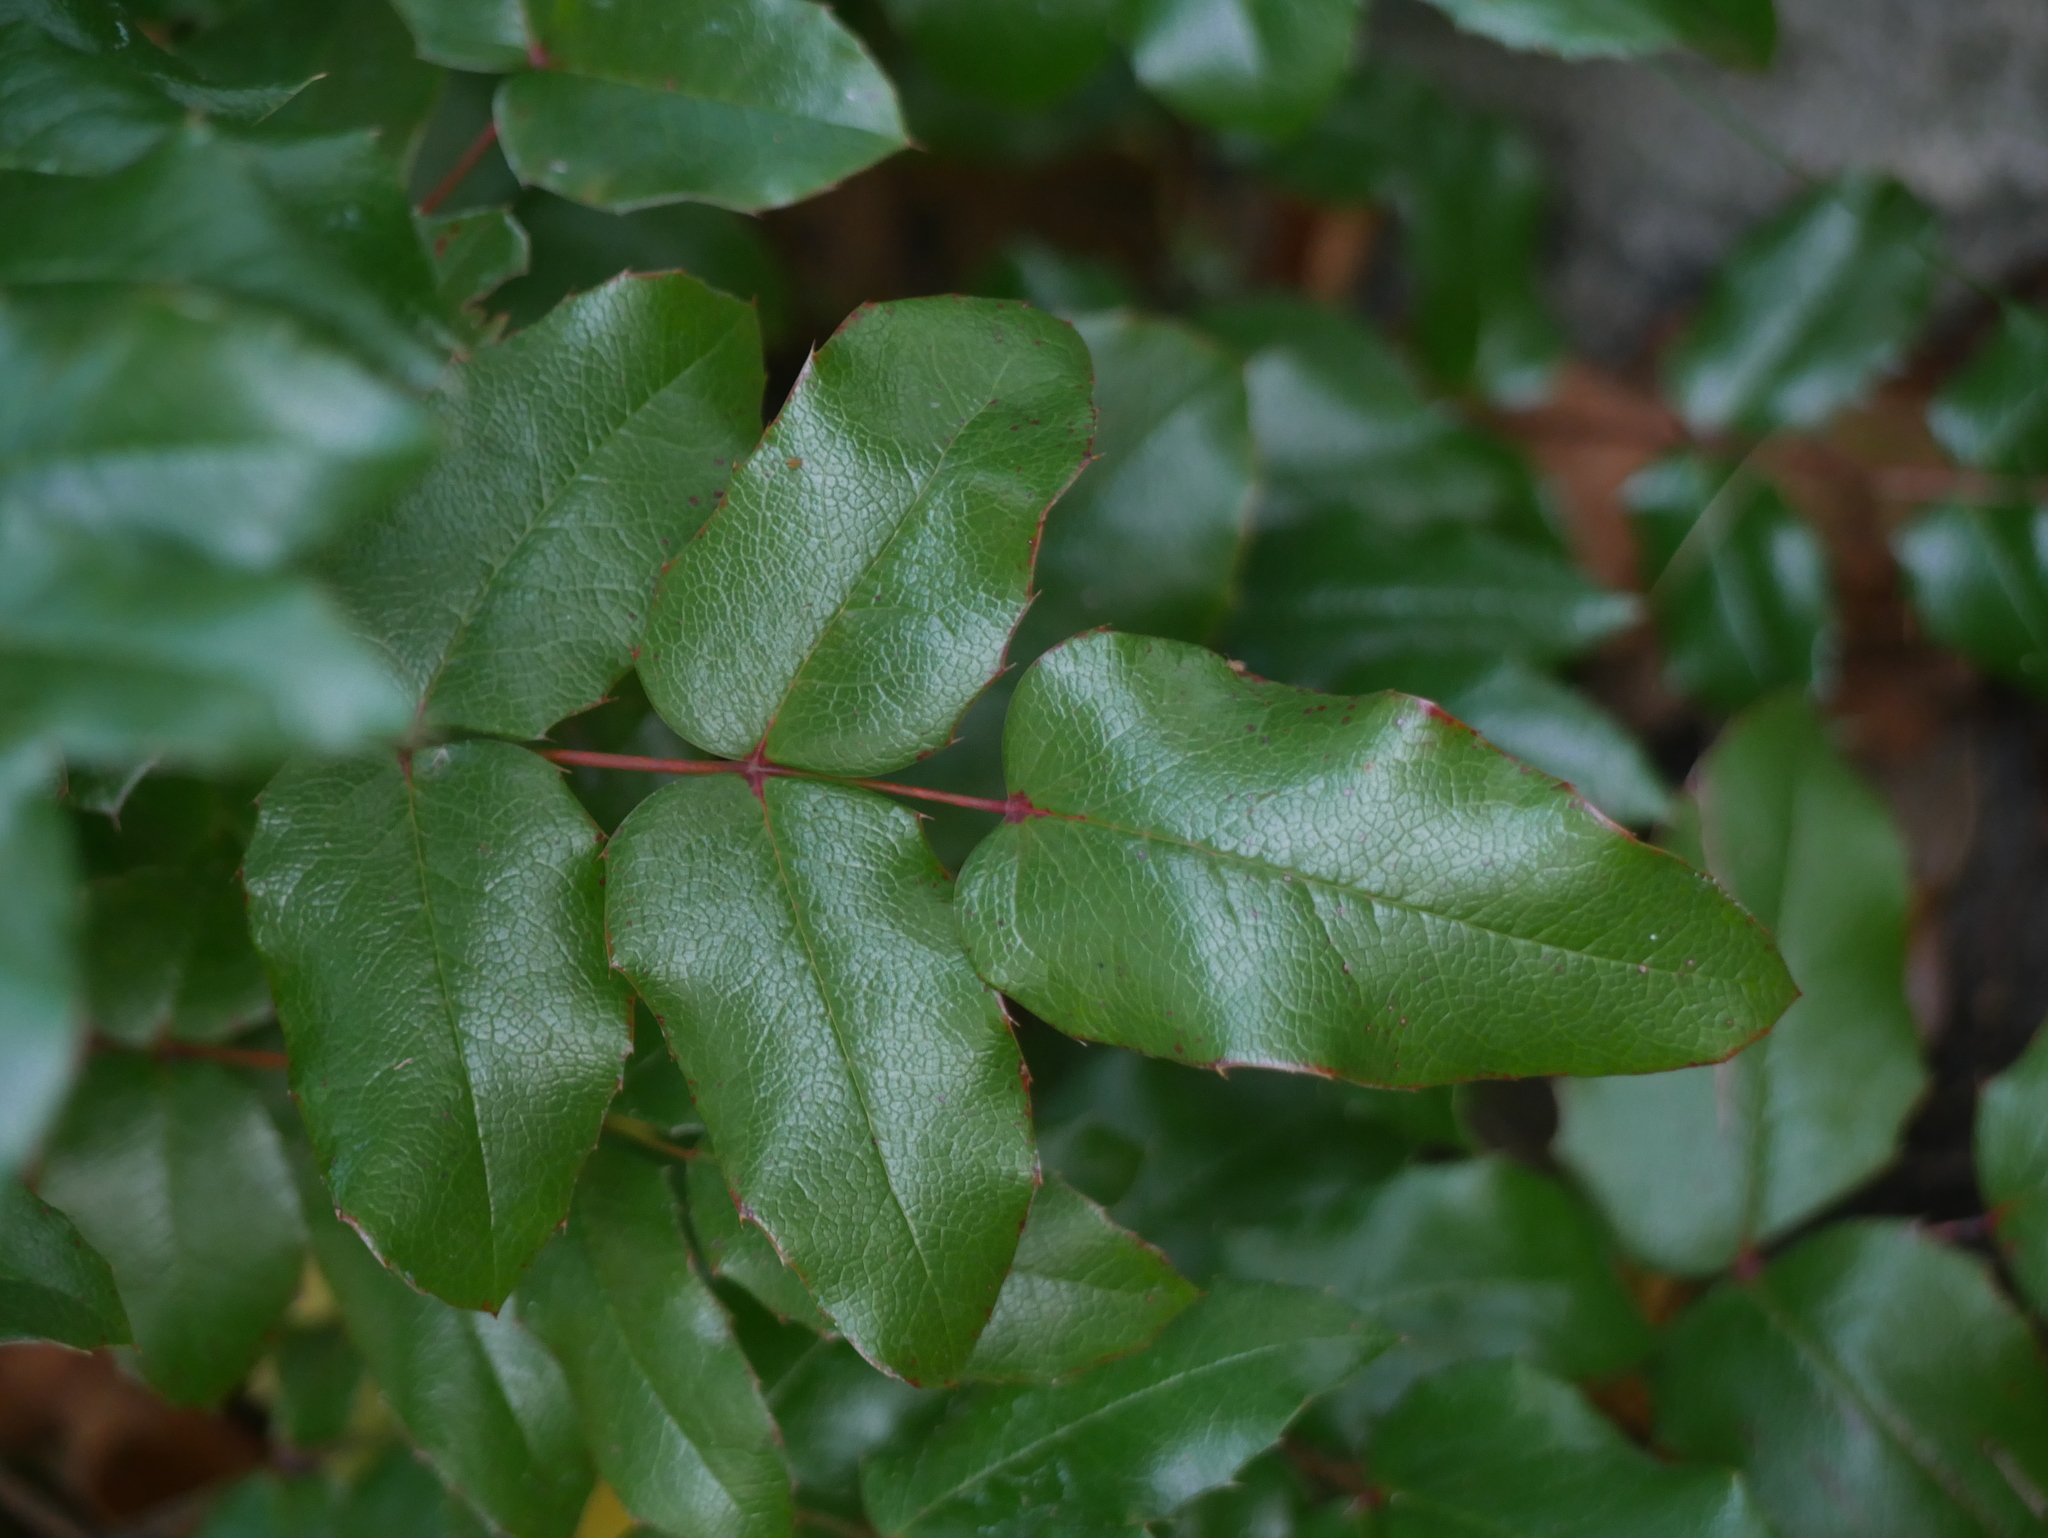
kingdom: Plantae
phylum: Tracheophyta
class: Magnoliopsida
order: Ranunculales
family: Berberidaceae
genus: Mahonia
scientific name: Mahonia aquifolium
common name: Oregon-grape
